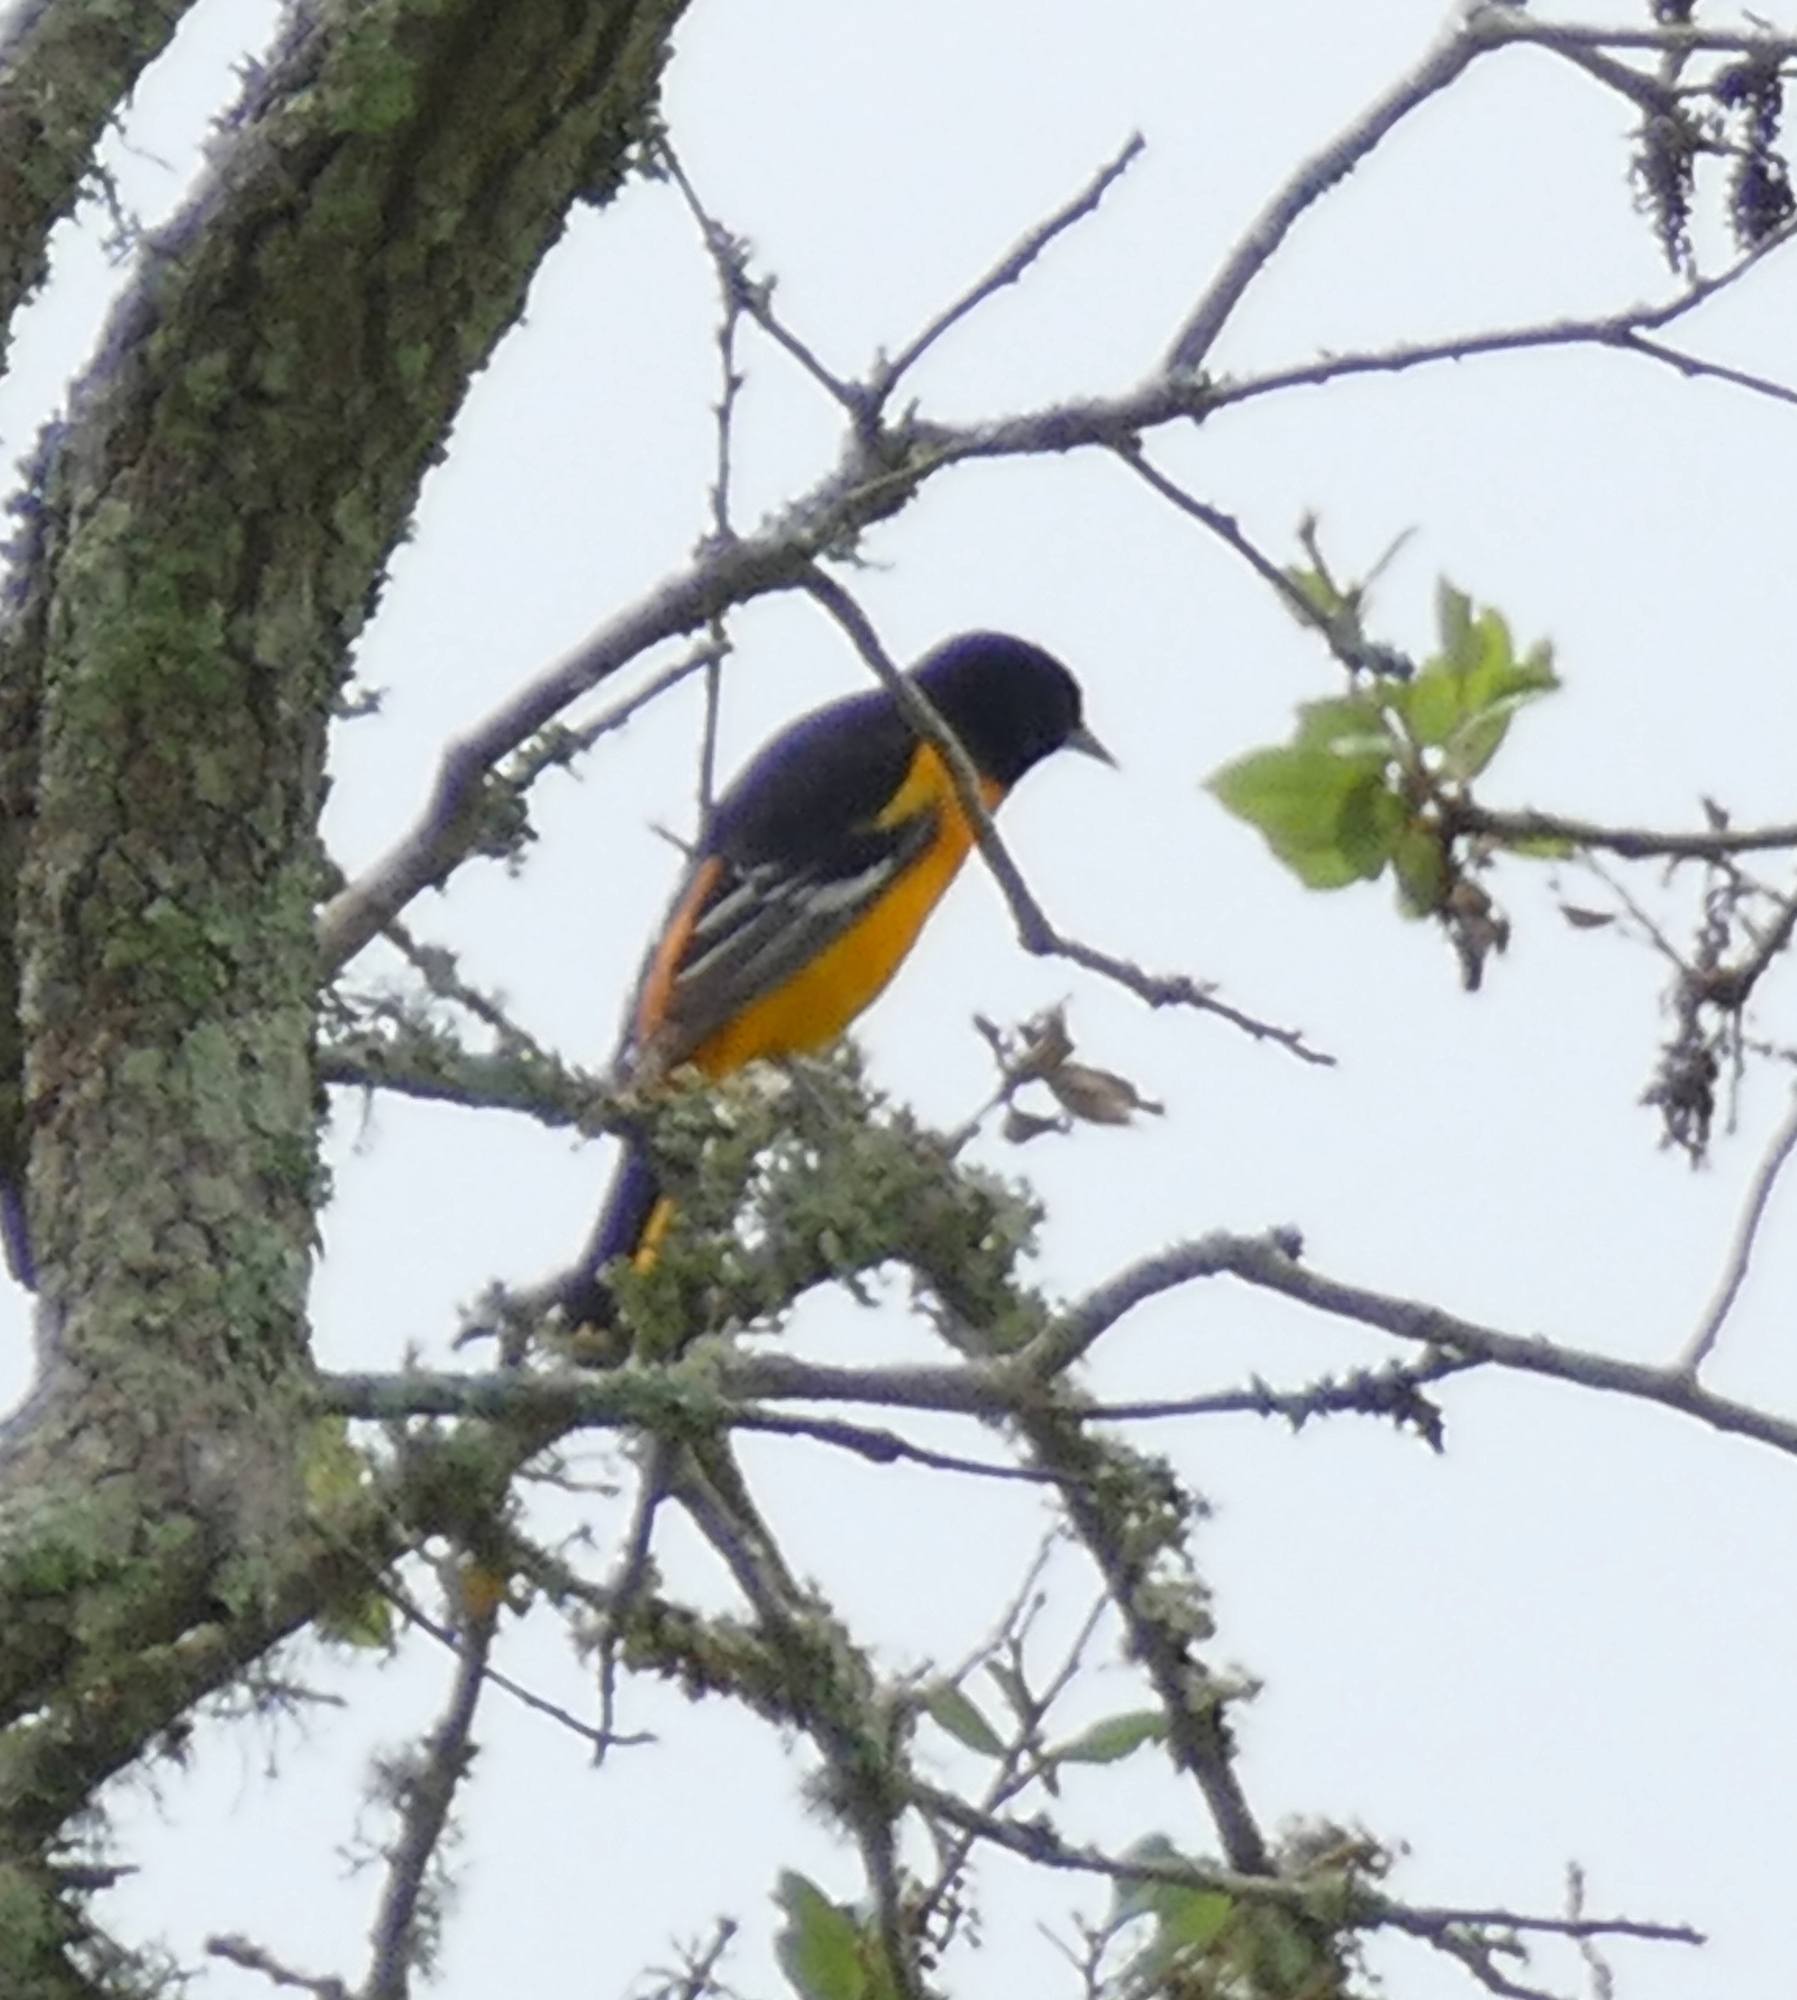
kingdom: Animalia
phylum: Chordata
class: Aves
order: Passeriformes
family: Icteridae
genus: Icterus
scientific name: Icterus galbula
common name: Baltimore oriole
